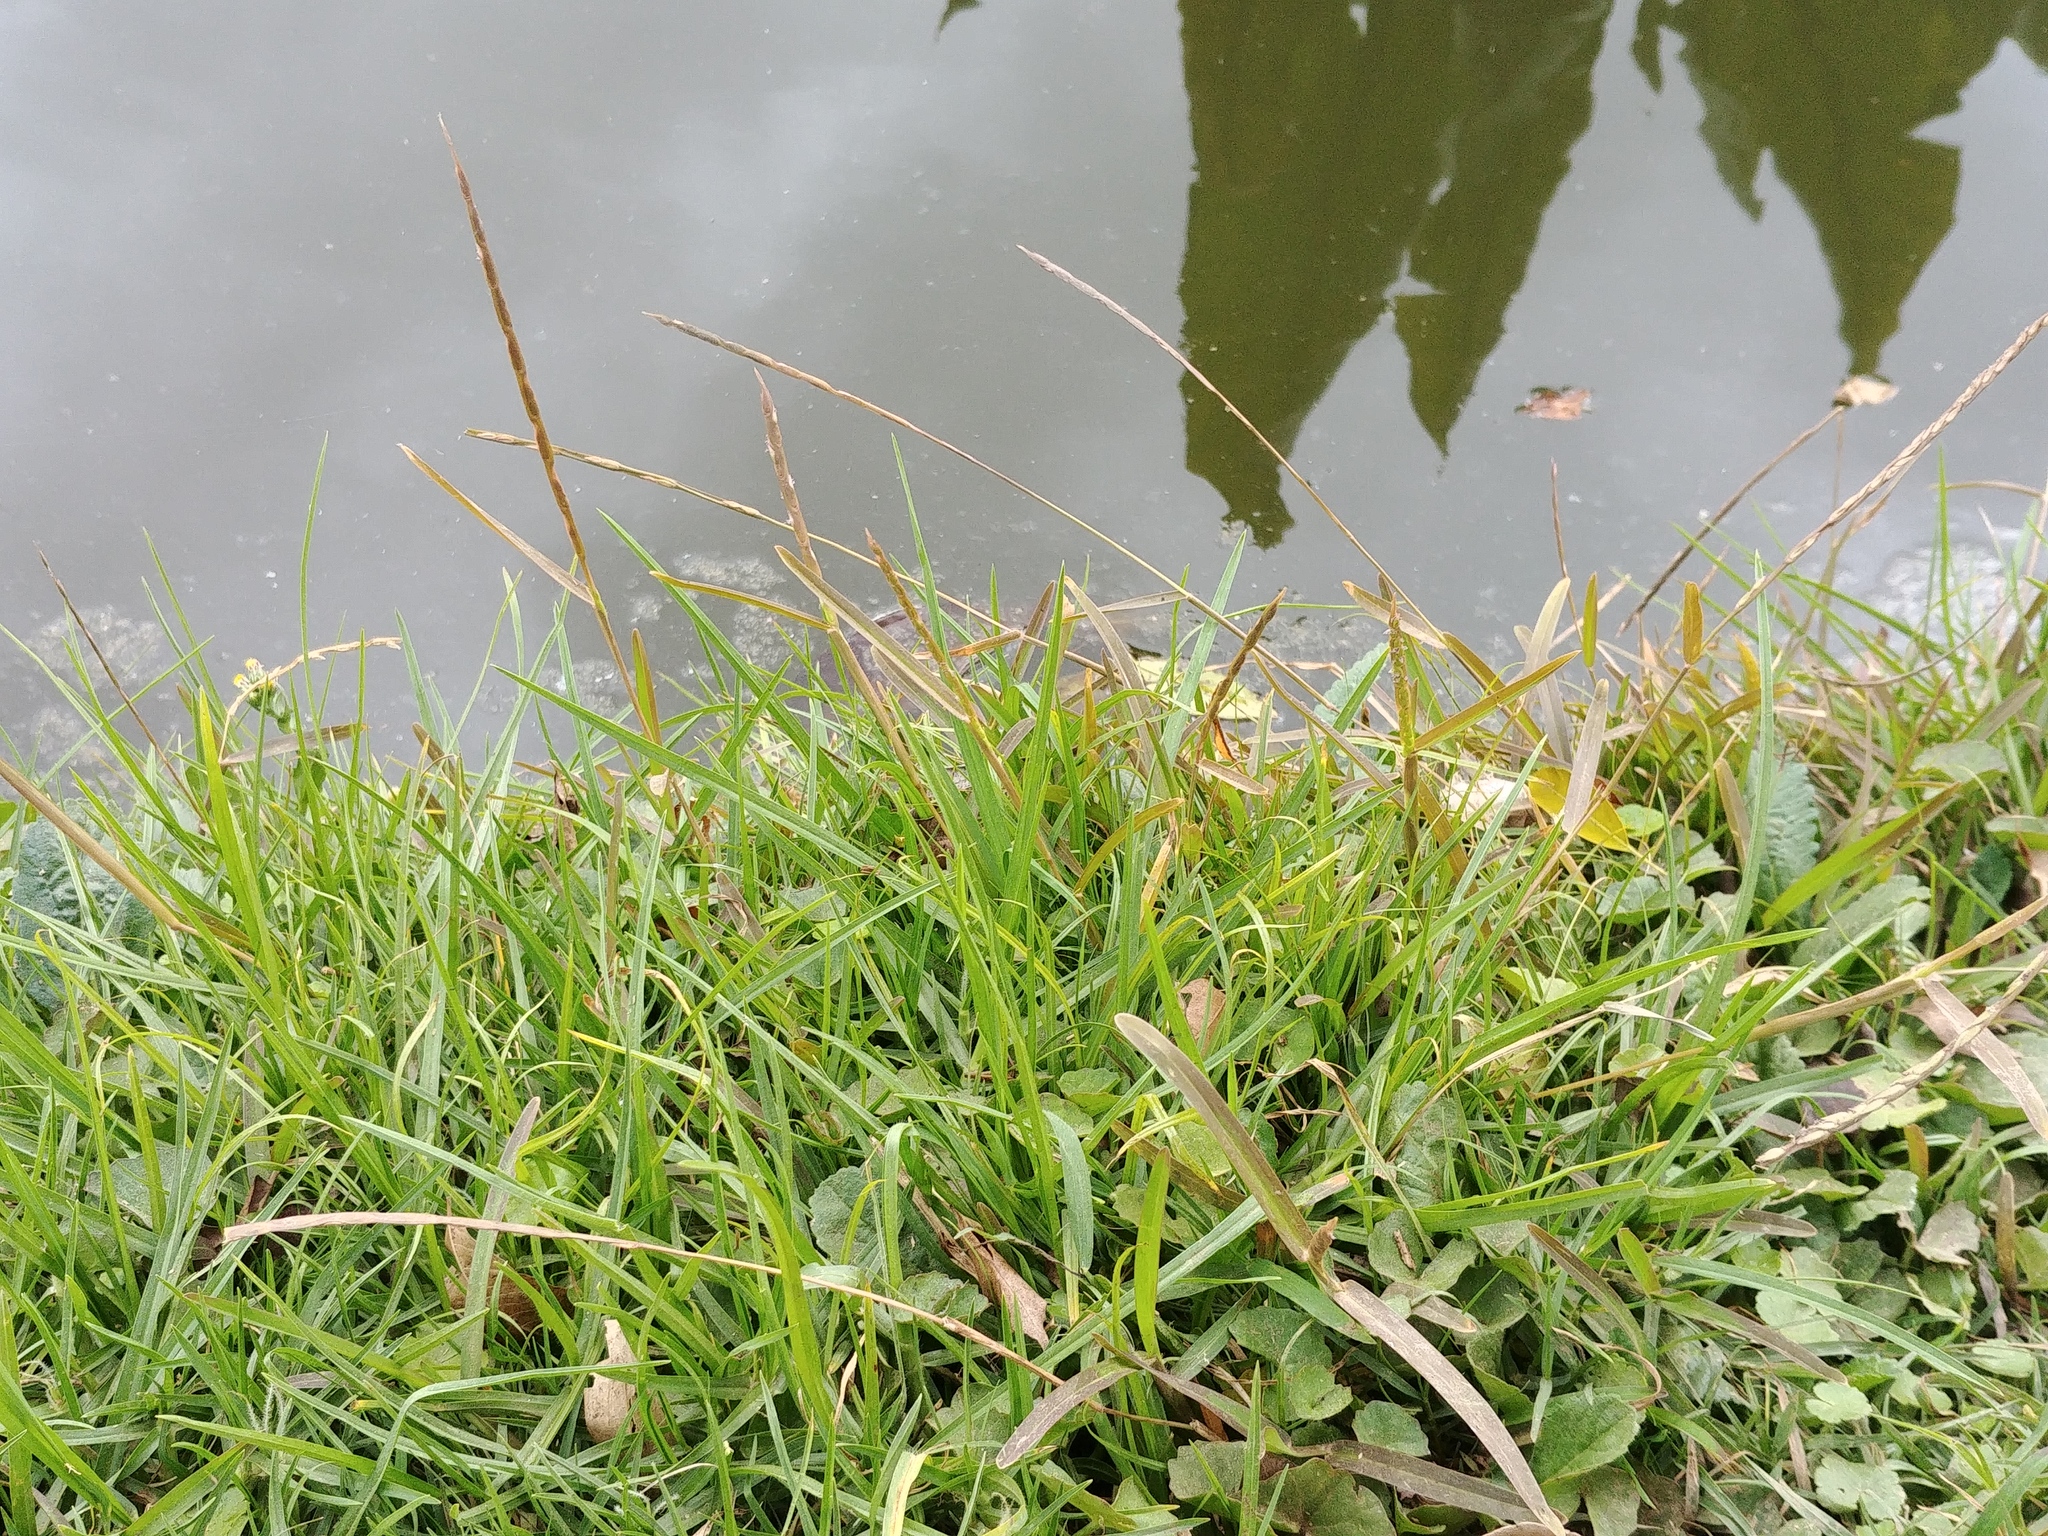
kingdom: Plantae
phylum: Tracheophyta
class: Liliopsida
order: Poales
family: Poaceae
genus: Stenotaphrum
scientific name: Stenotaphrum unilaterale
